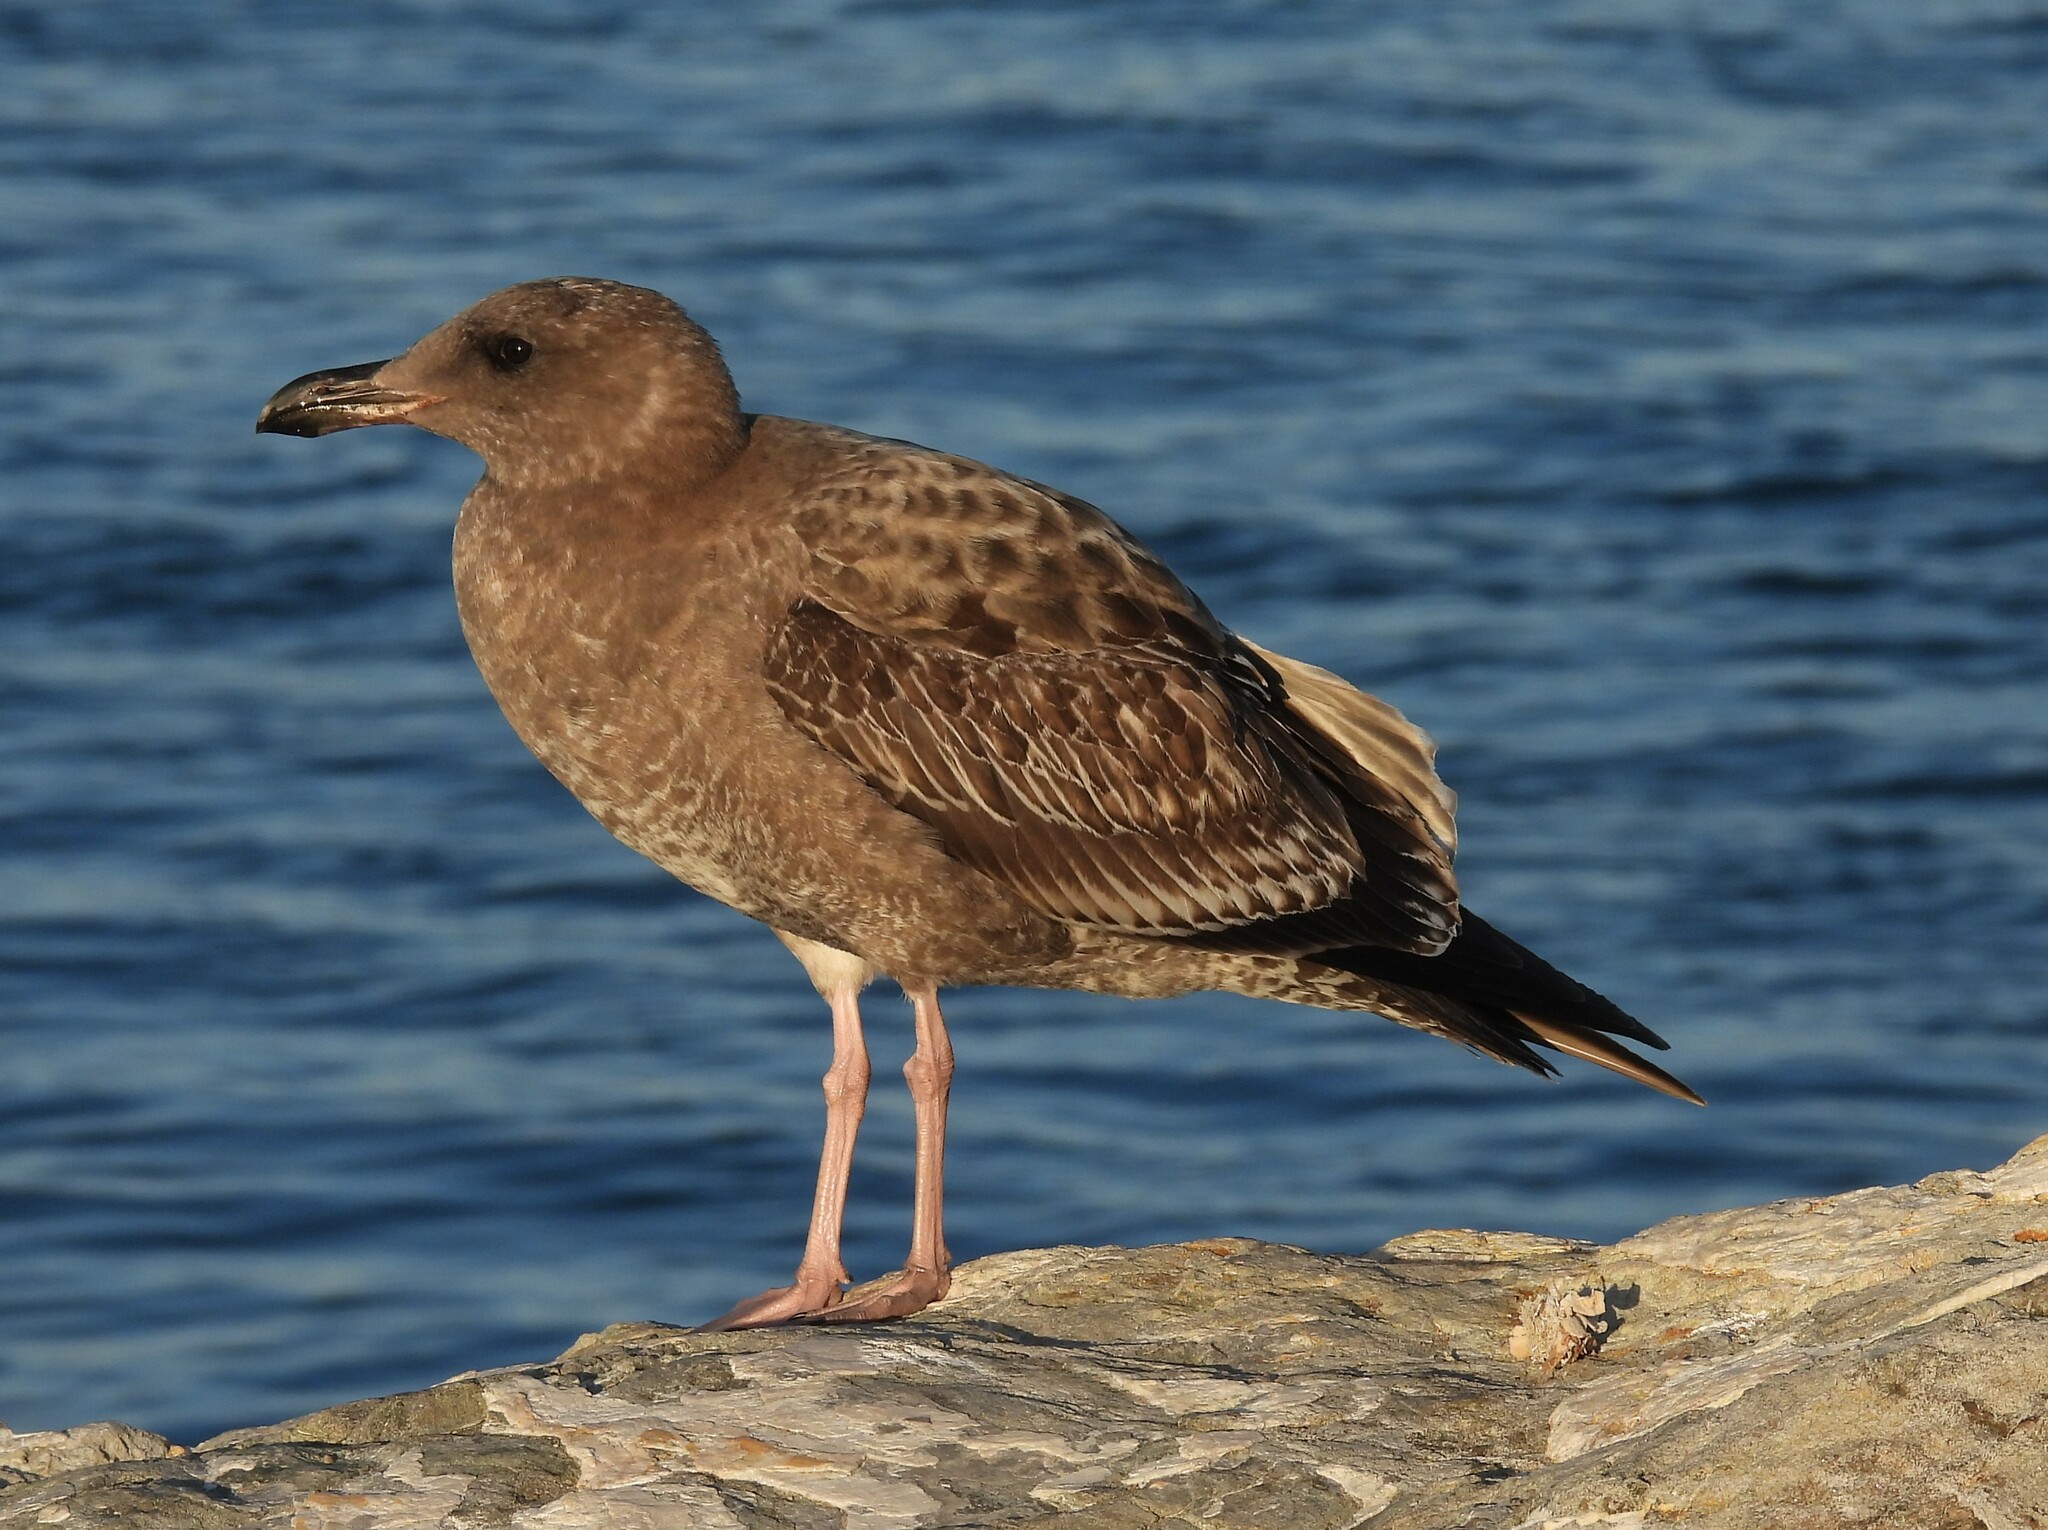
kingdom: Animalia
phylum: Chordata
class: Aves
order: Charadriiformes
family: Laridae
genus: Larus
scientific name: Larus occidentalis
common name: Western gull
